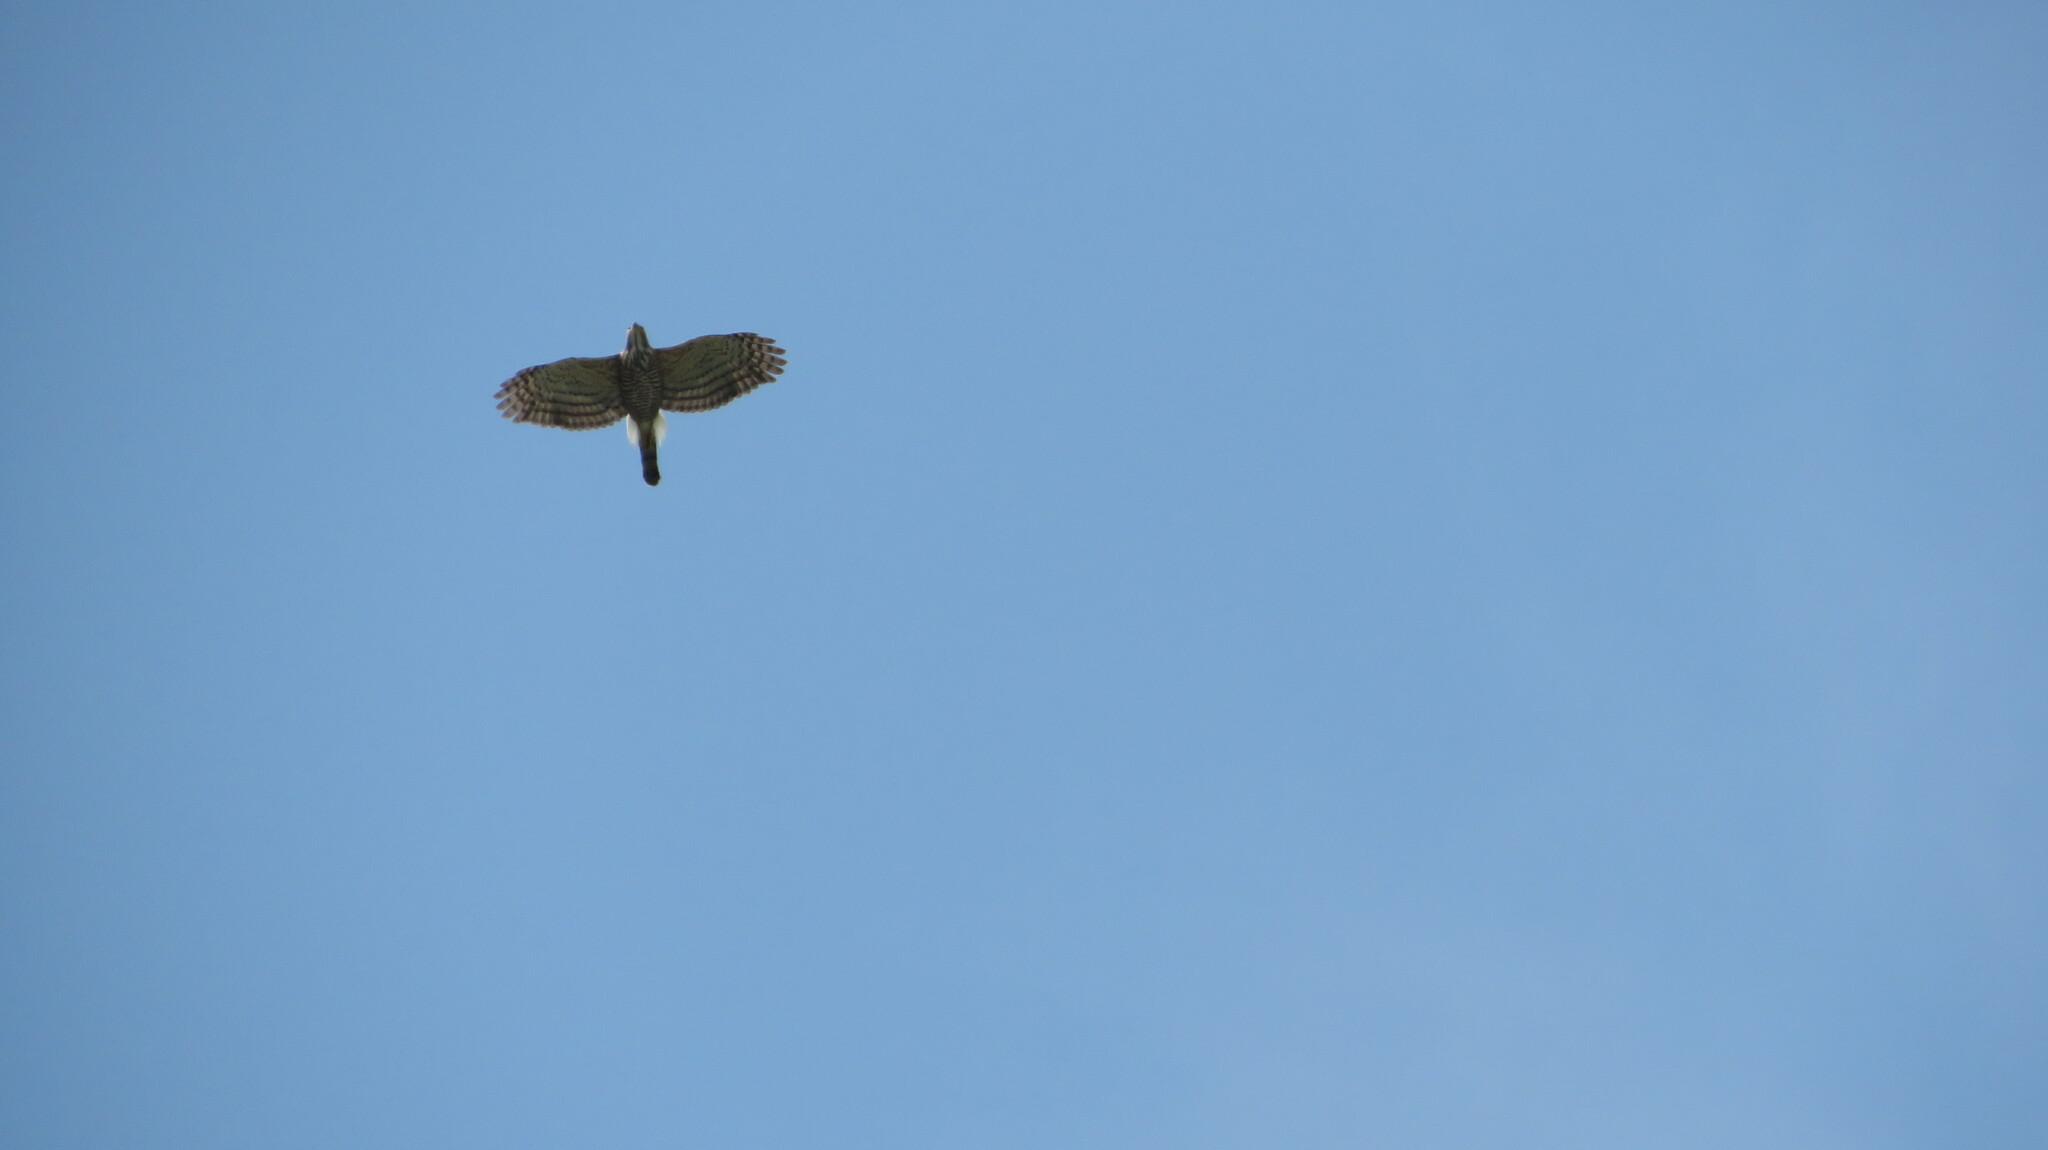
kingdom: Animalia
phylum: Chordata
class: Aves
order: Accipitriformes
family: Accipitridae
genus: Accipiter
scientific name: Accipiter trivirgatus
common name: Crested goshawk
